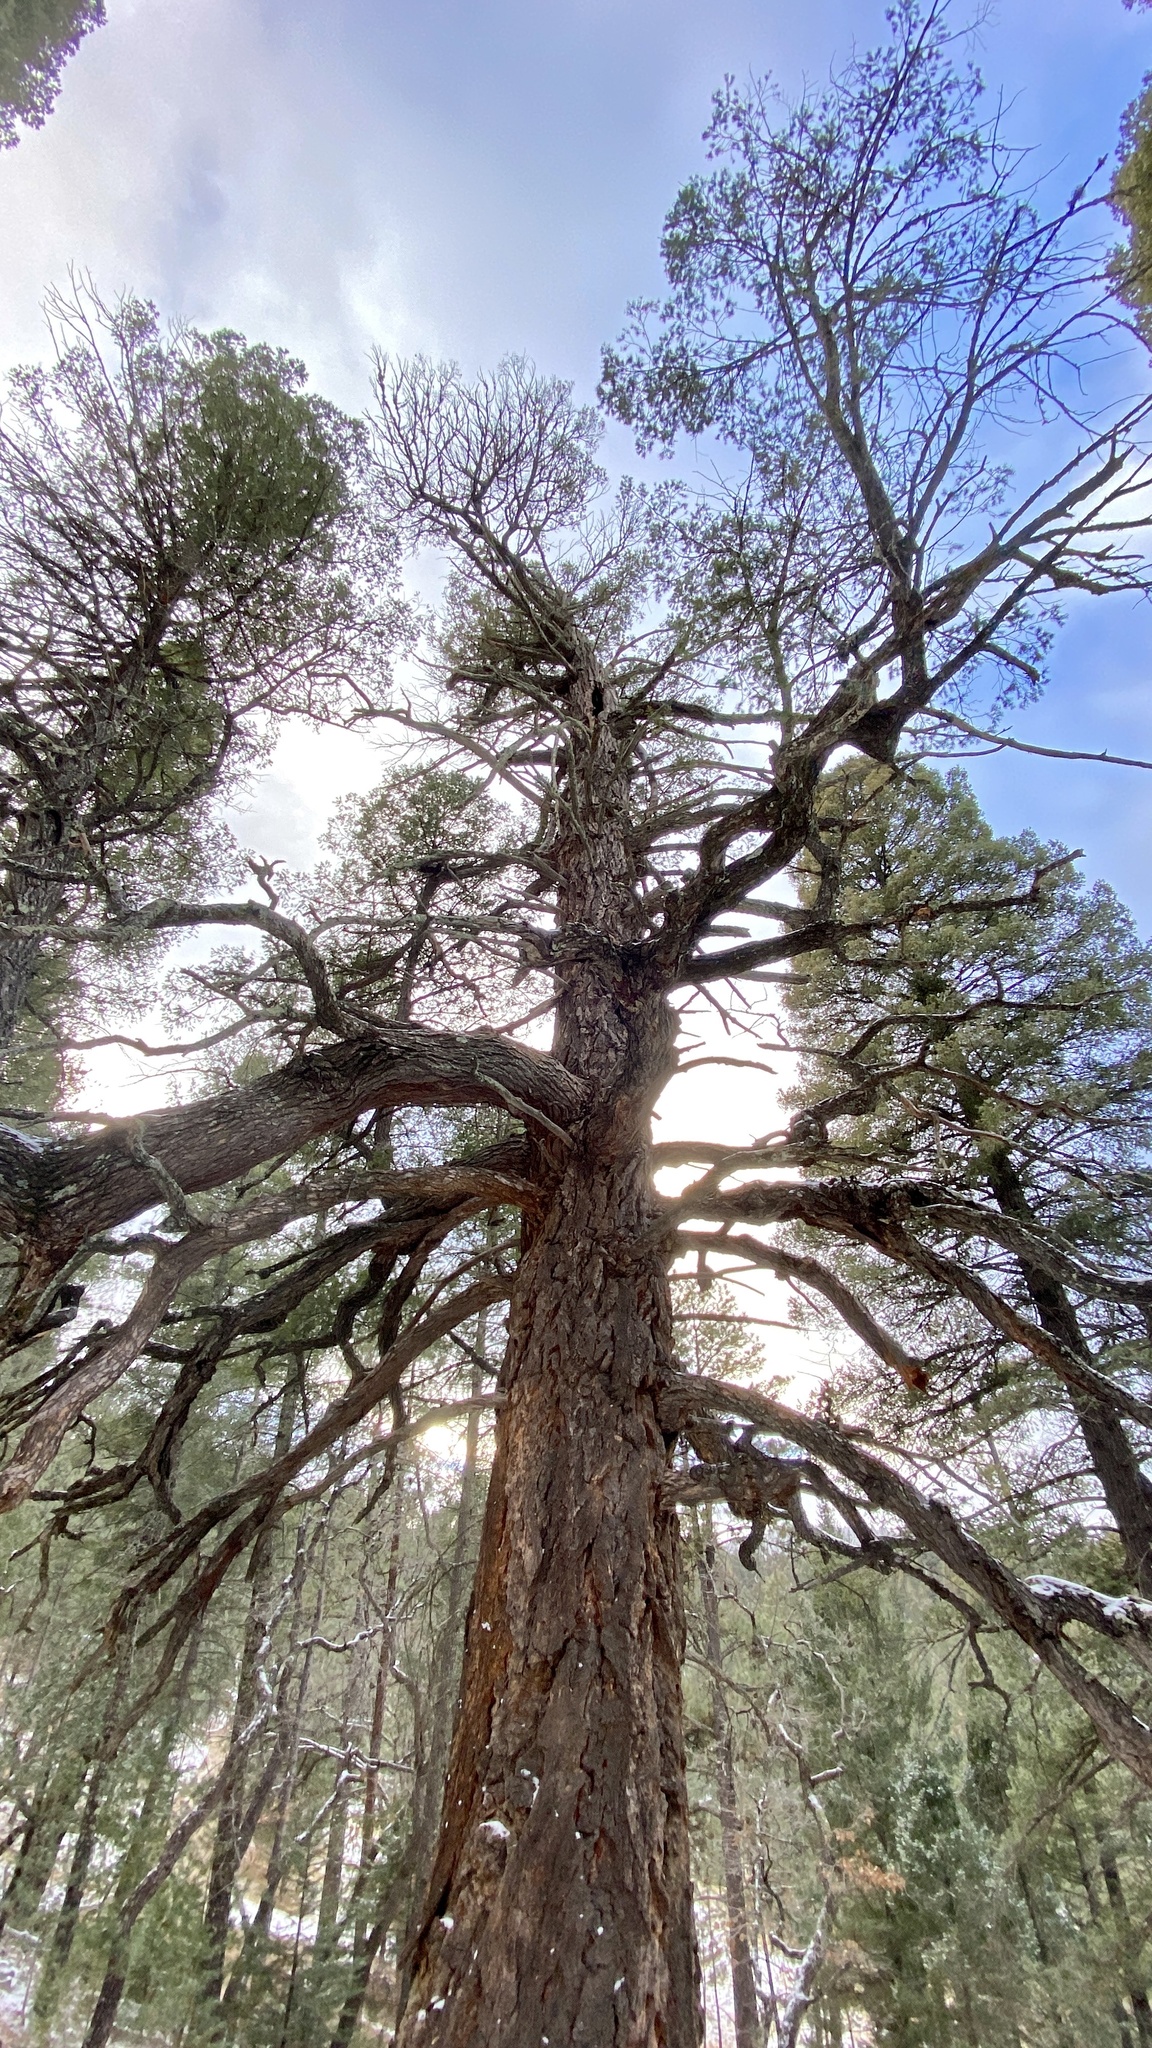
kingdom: Animalia
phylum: Chordata
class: Aves
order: Passeriformes
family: Passerellidae
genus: Junco
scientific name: Junco hyemalis
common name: Dark-eyed junco
